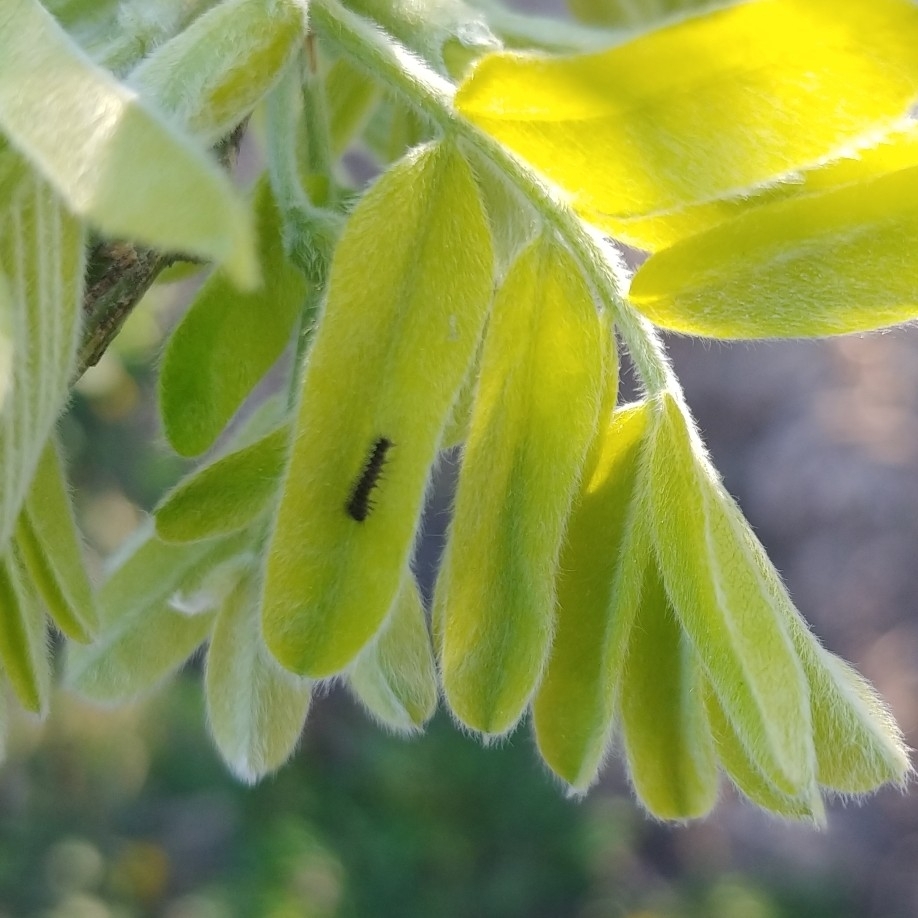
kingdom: Animalia
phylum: Arthropoda
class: Insecta
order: Lepidoptera
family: Erebidae
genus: Lymantria
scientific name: Lymantria dispar
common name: Gypsy moth
